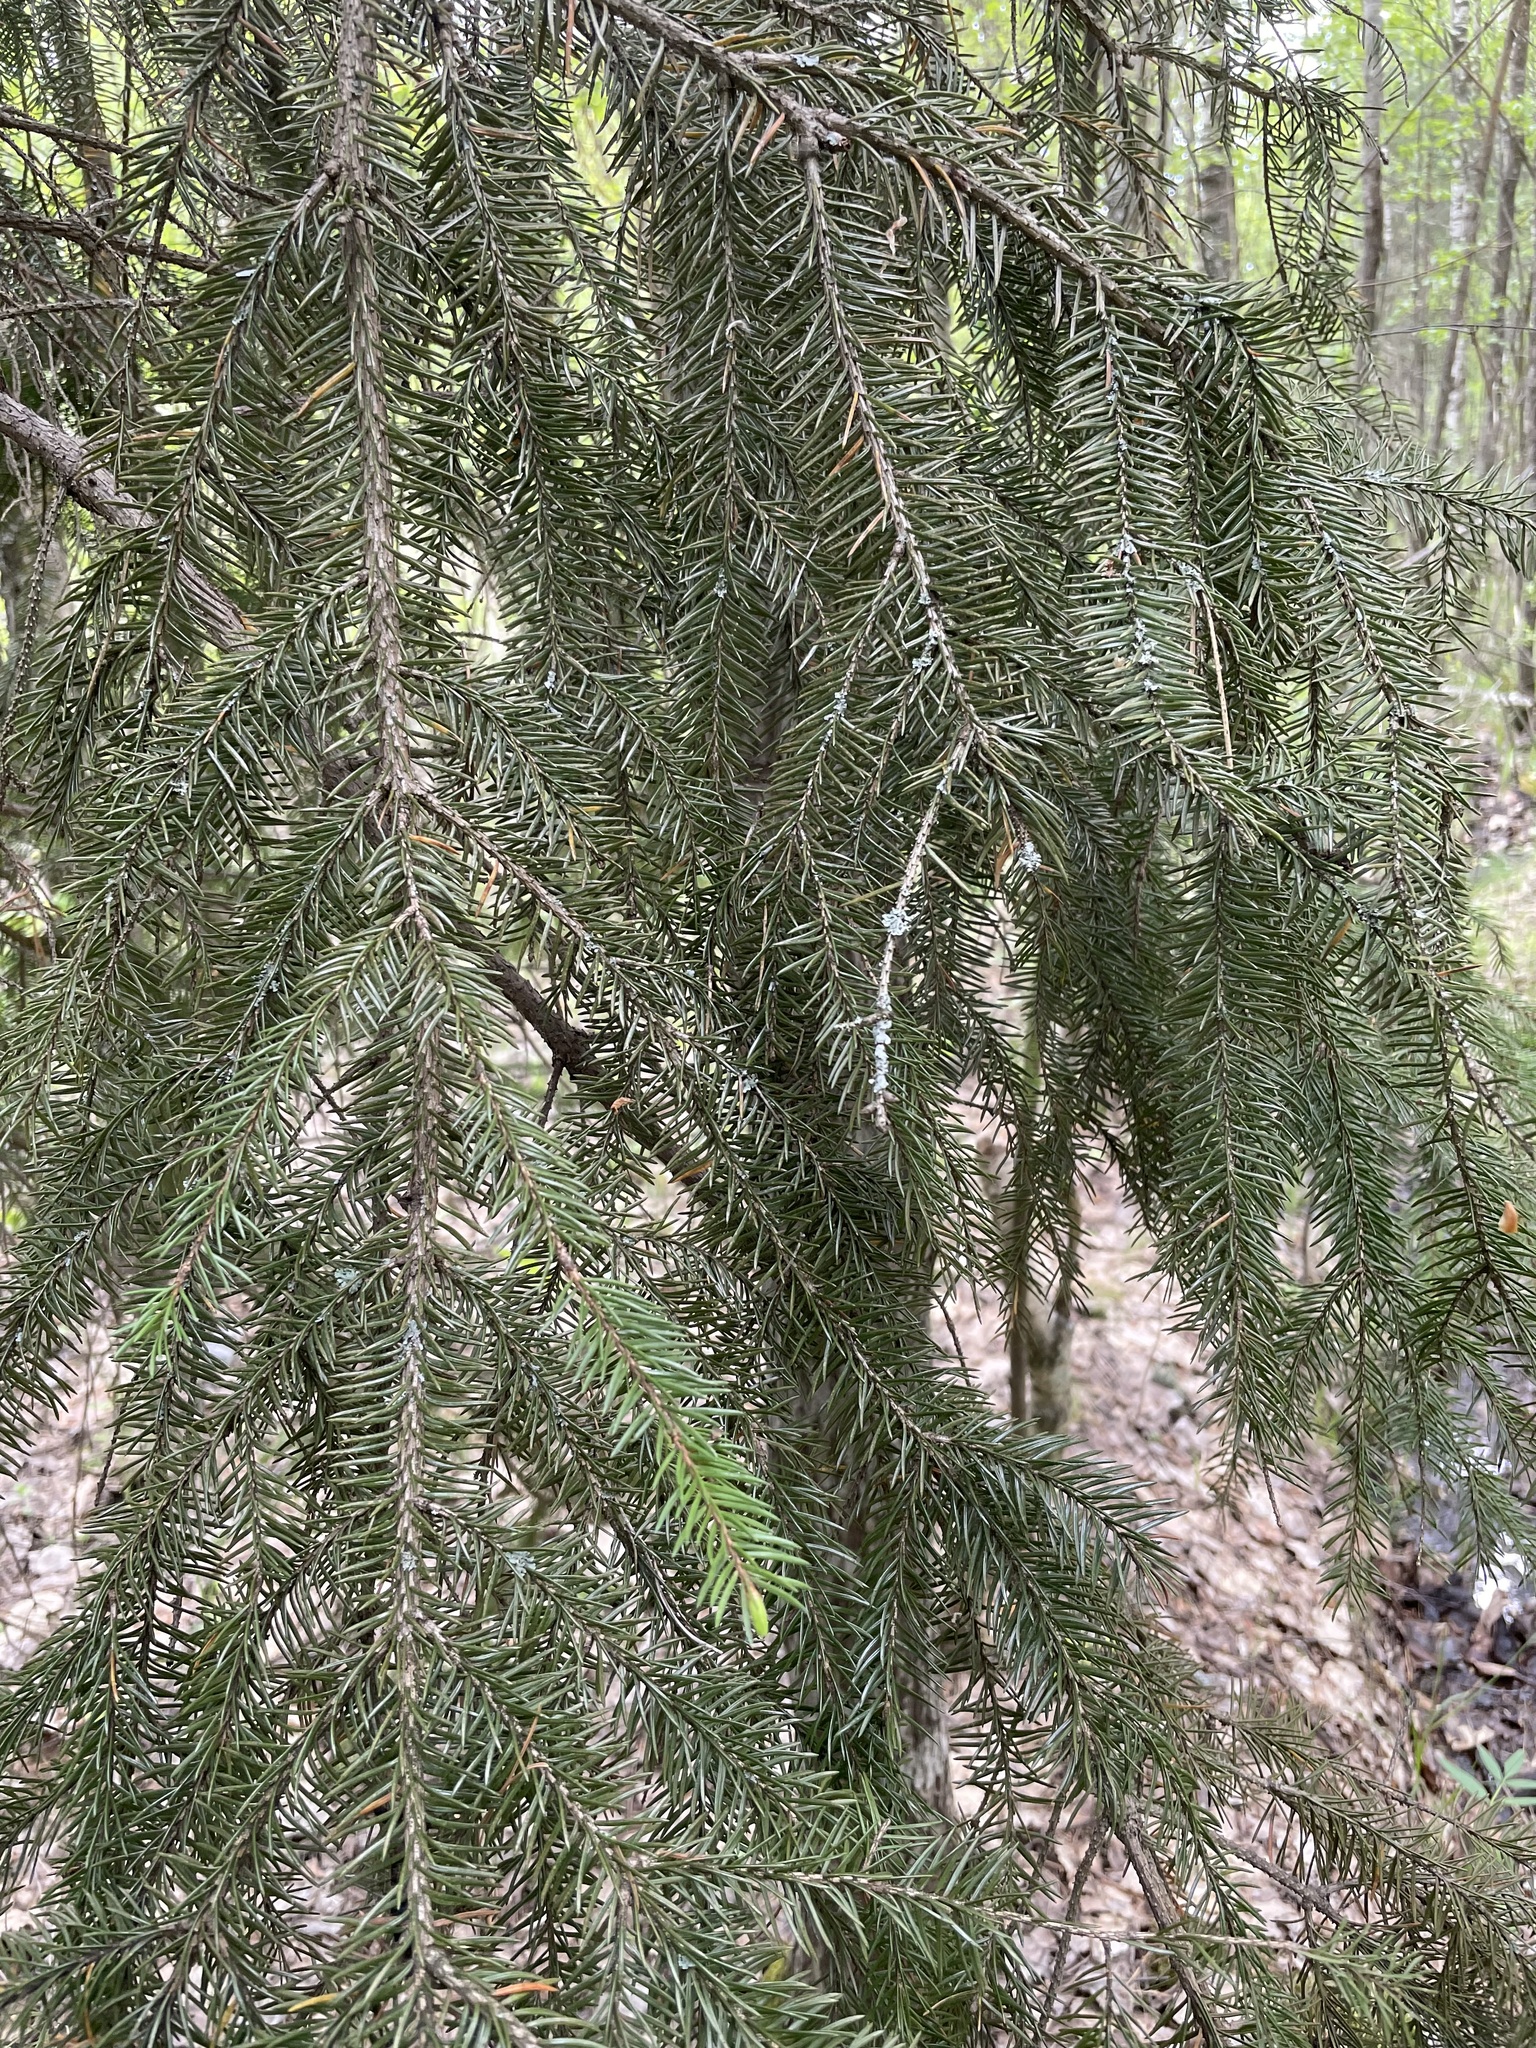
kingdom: Plantae
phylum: Tracheophyta
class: Pinopsida
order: Pinales
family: Pinaceae
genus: Picea
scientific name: Picea abies
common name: Norway spruce
